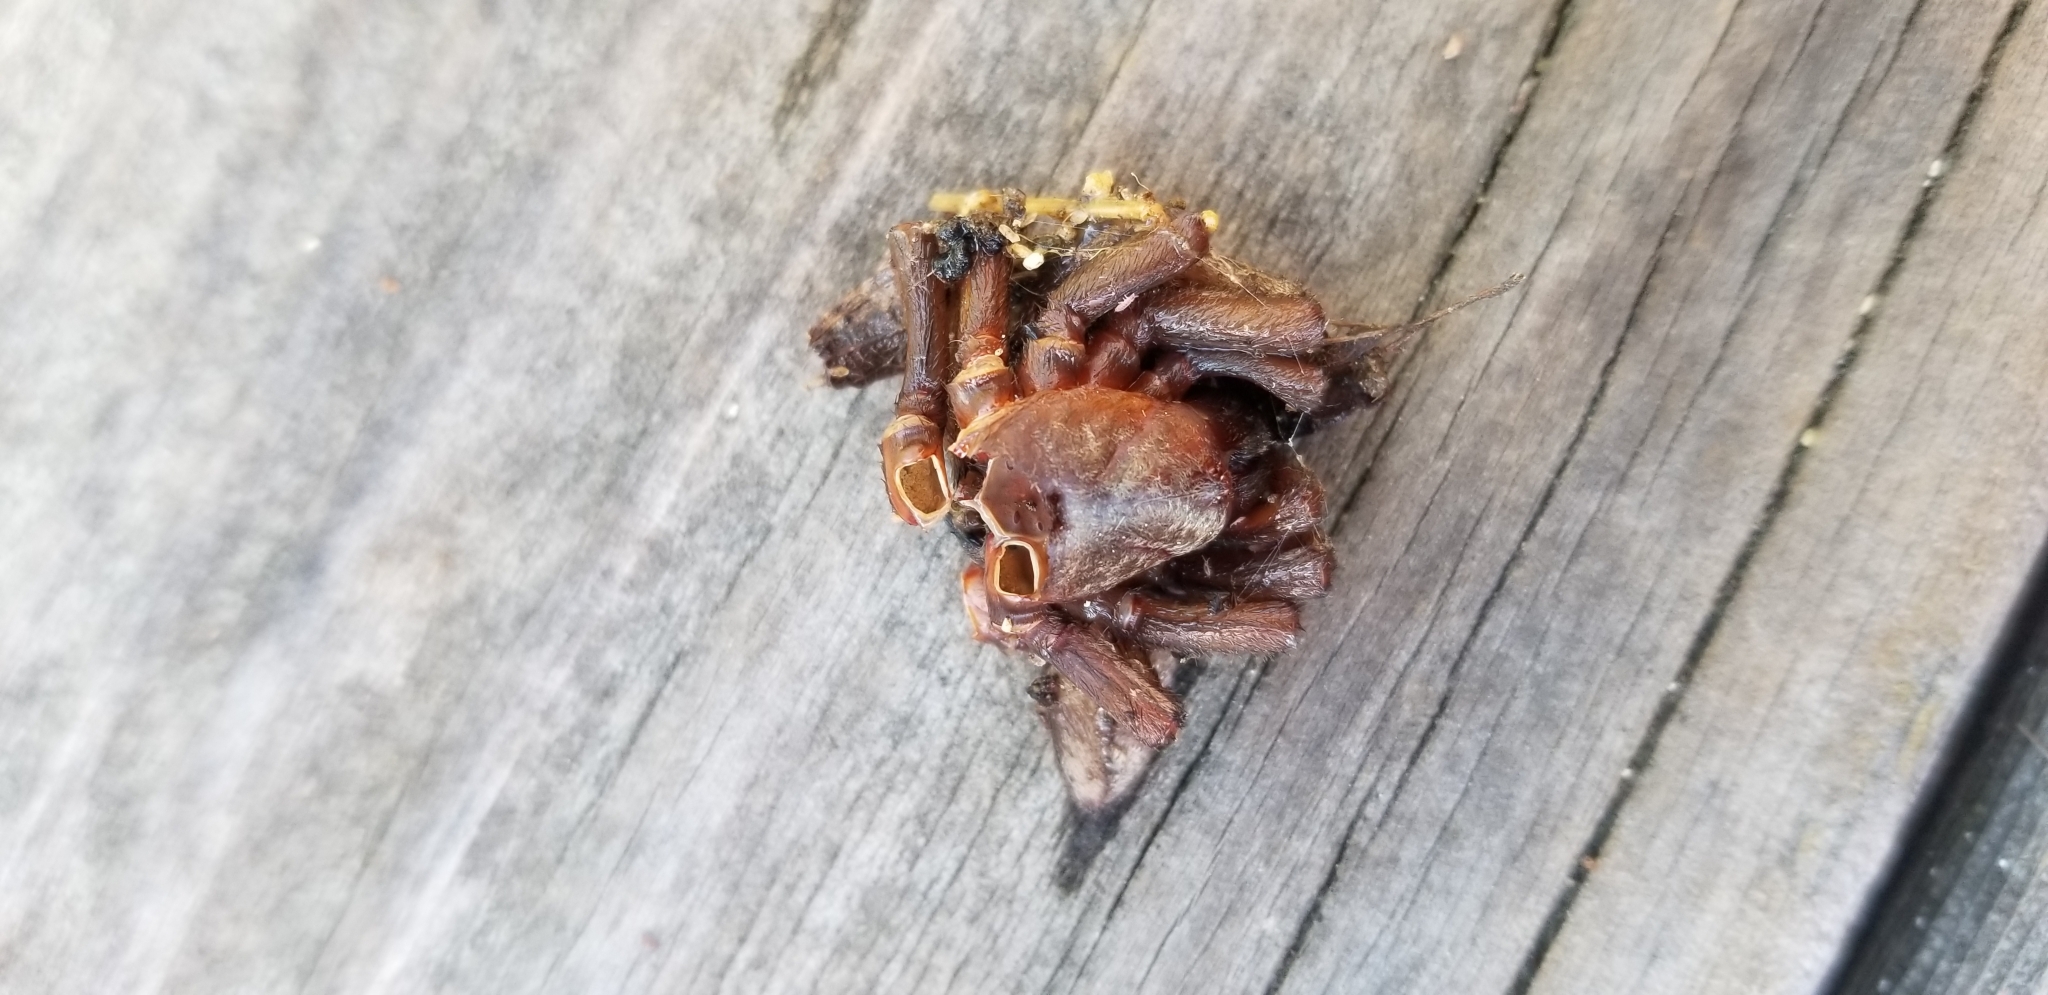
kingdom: Animalia
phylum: Arthropoda
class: Arachnida
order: Araneae
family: Dysderidae
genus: Dysdera
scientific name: Dysdera crocata
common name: Woodlouse spider
